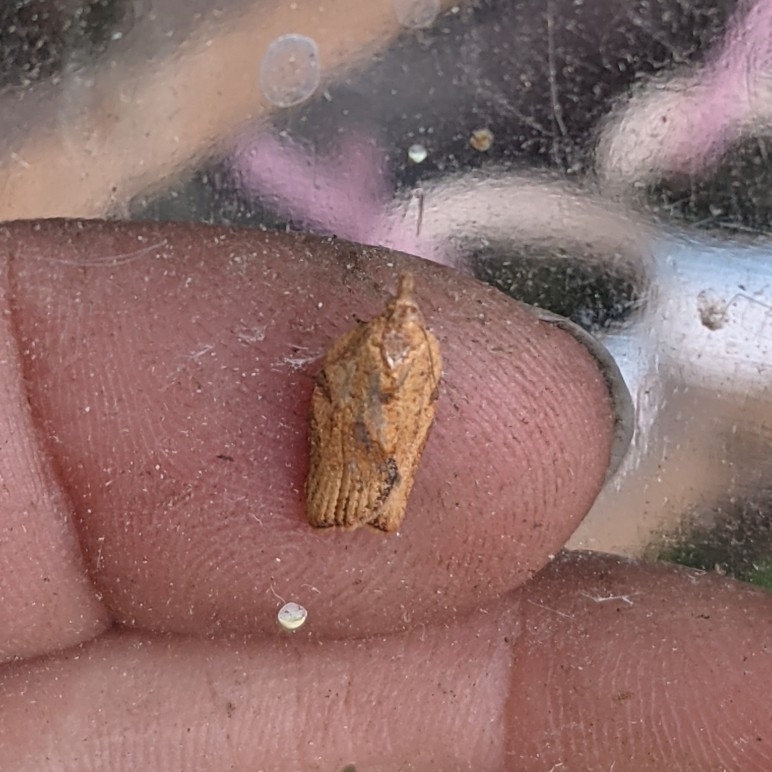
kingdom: Animalia
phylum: Arthropoda
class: Insecta
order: Lepidoptera
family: Tortricidae
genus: Epiphyas
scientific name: Epiphyas postvittana
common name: Light brown apple moth
